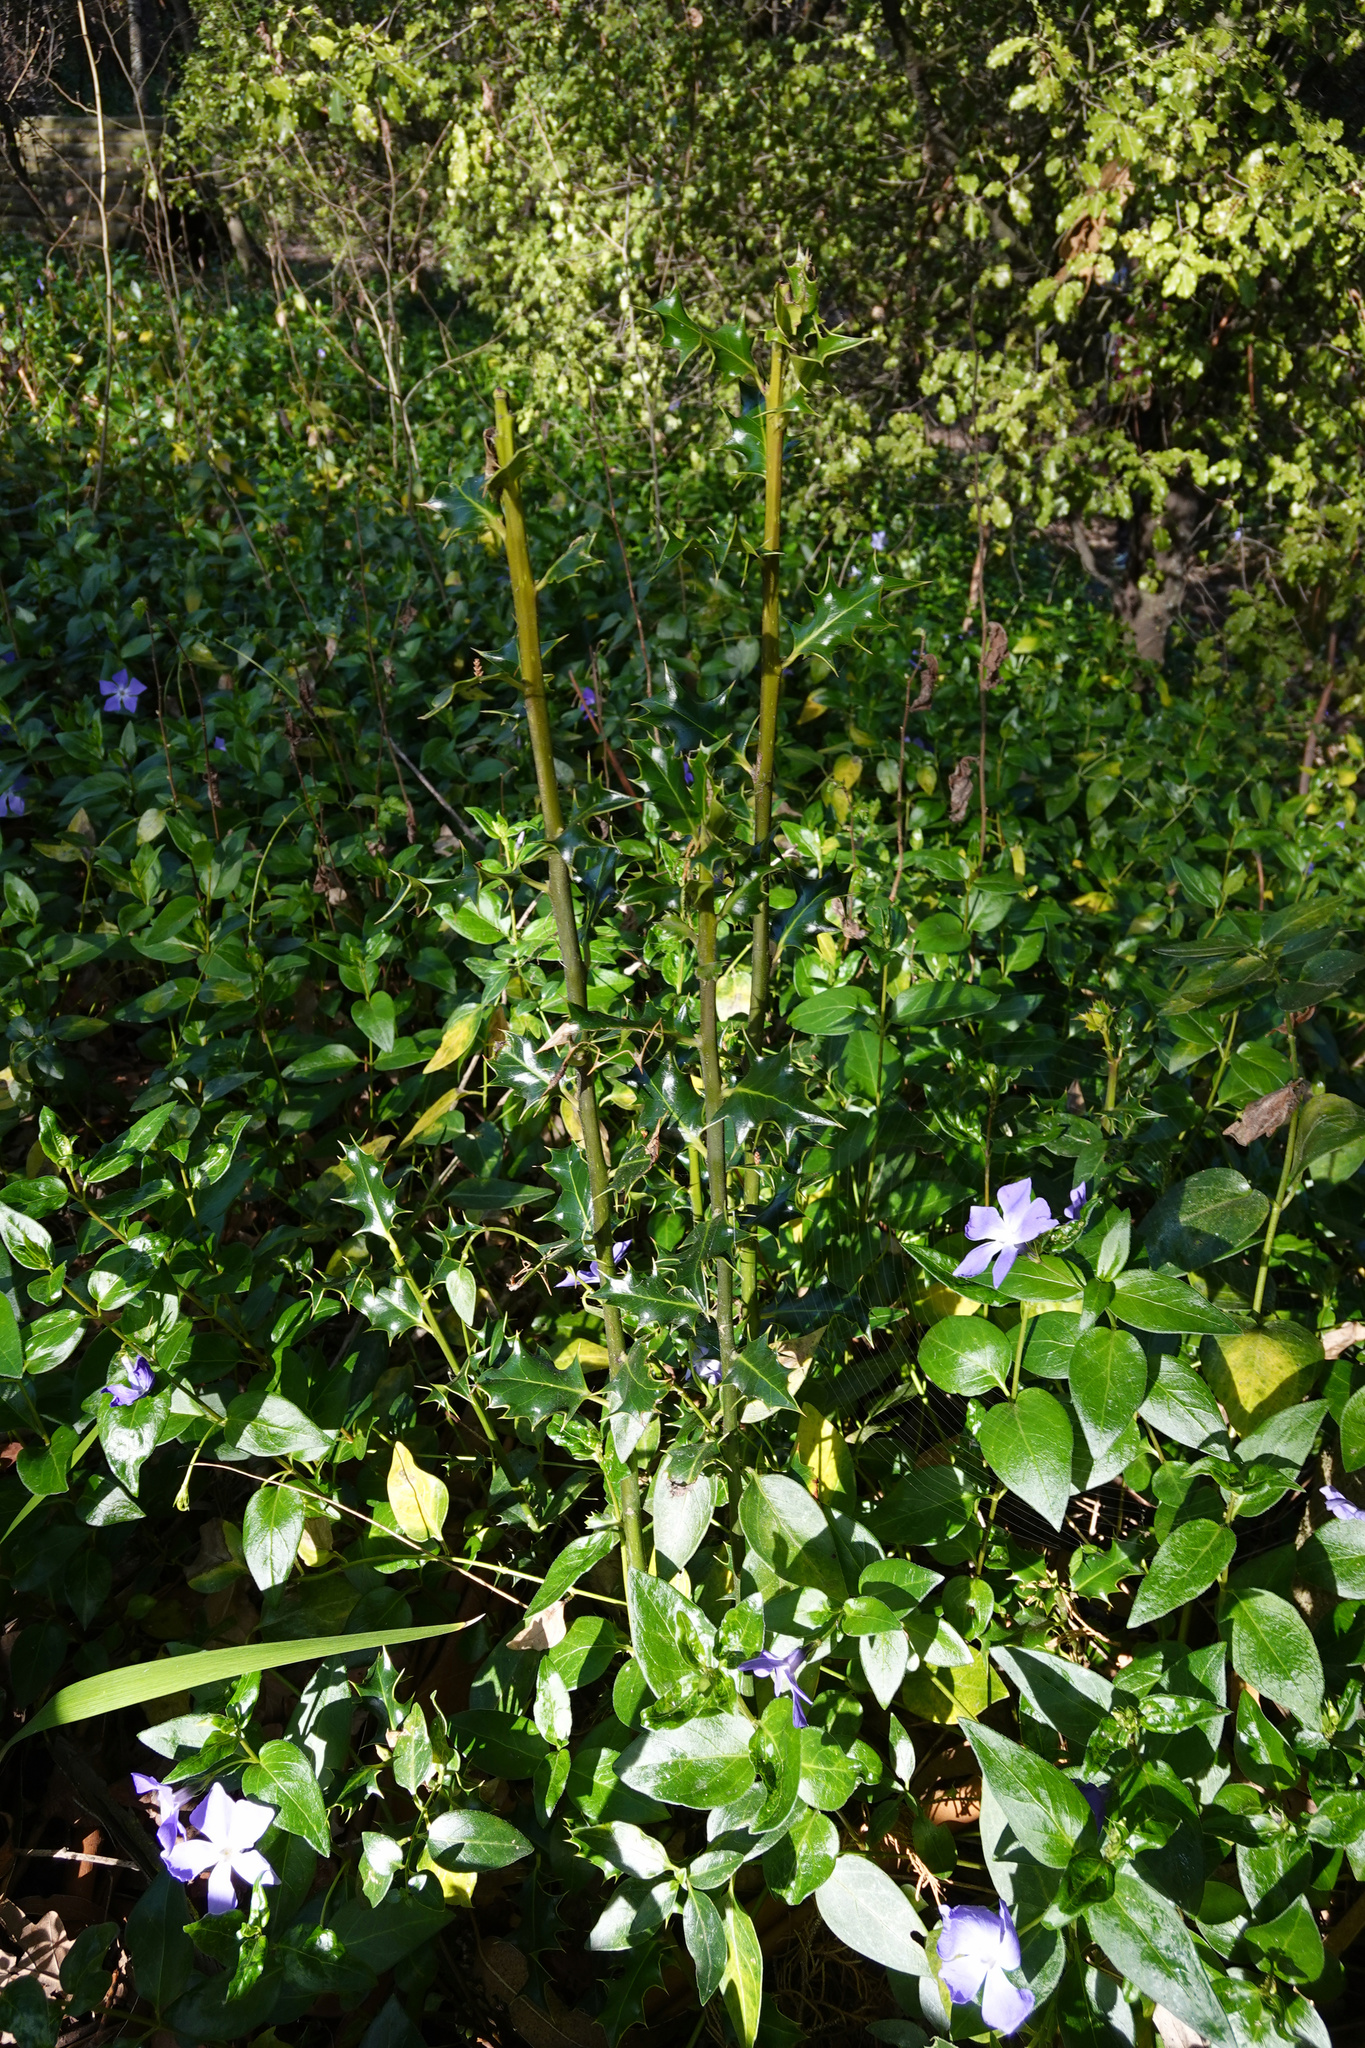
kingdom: Plantae
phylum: Tracheophyta
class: Magnoliopsida
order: Aquifoliales
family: Aquifoliaceae
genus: Ilex
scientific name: Ilex aquifolium
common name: English holly
